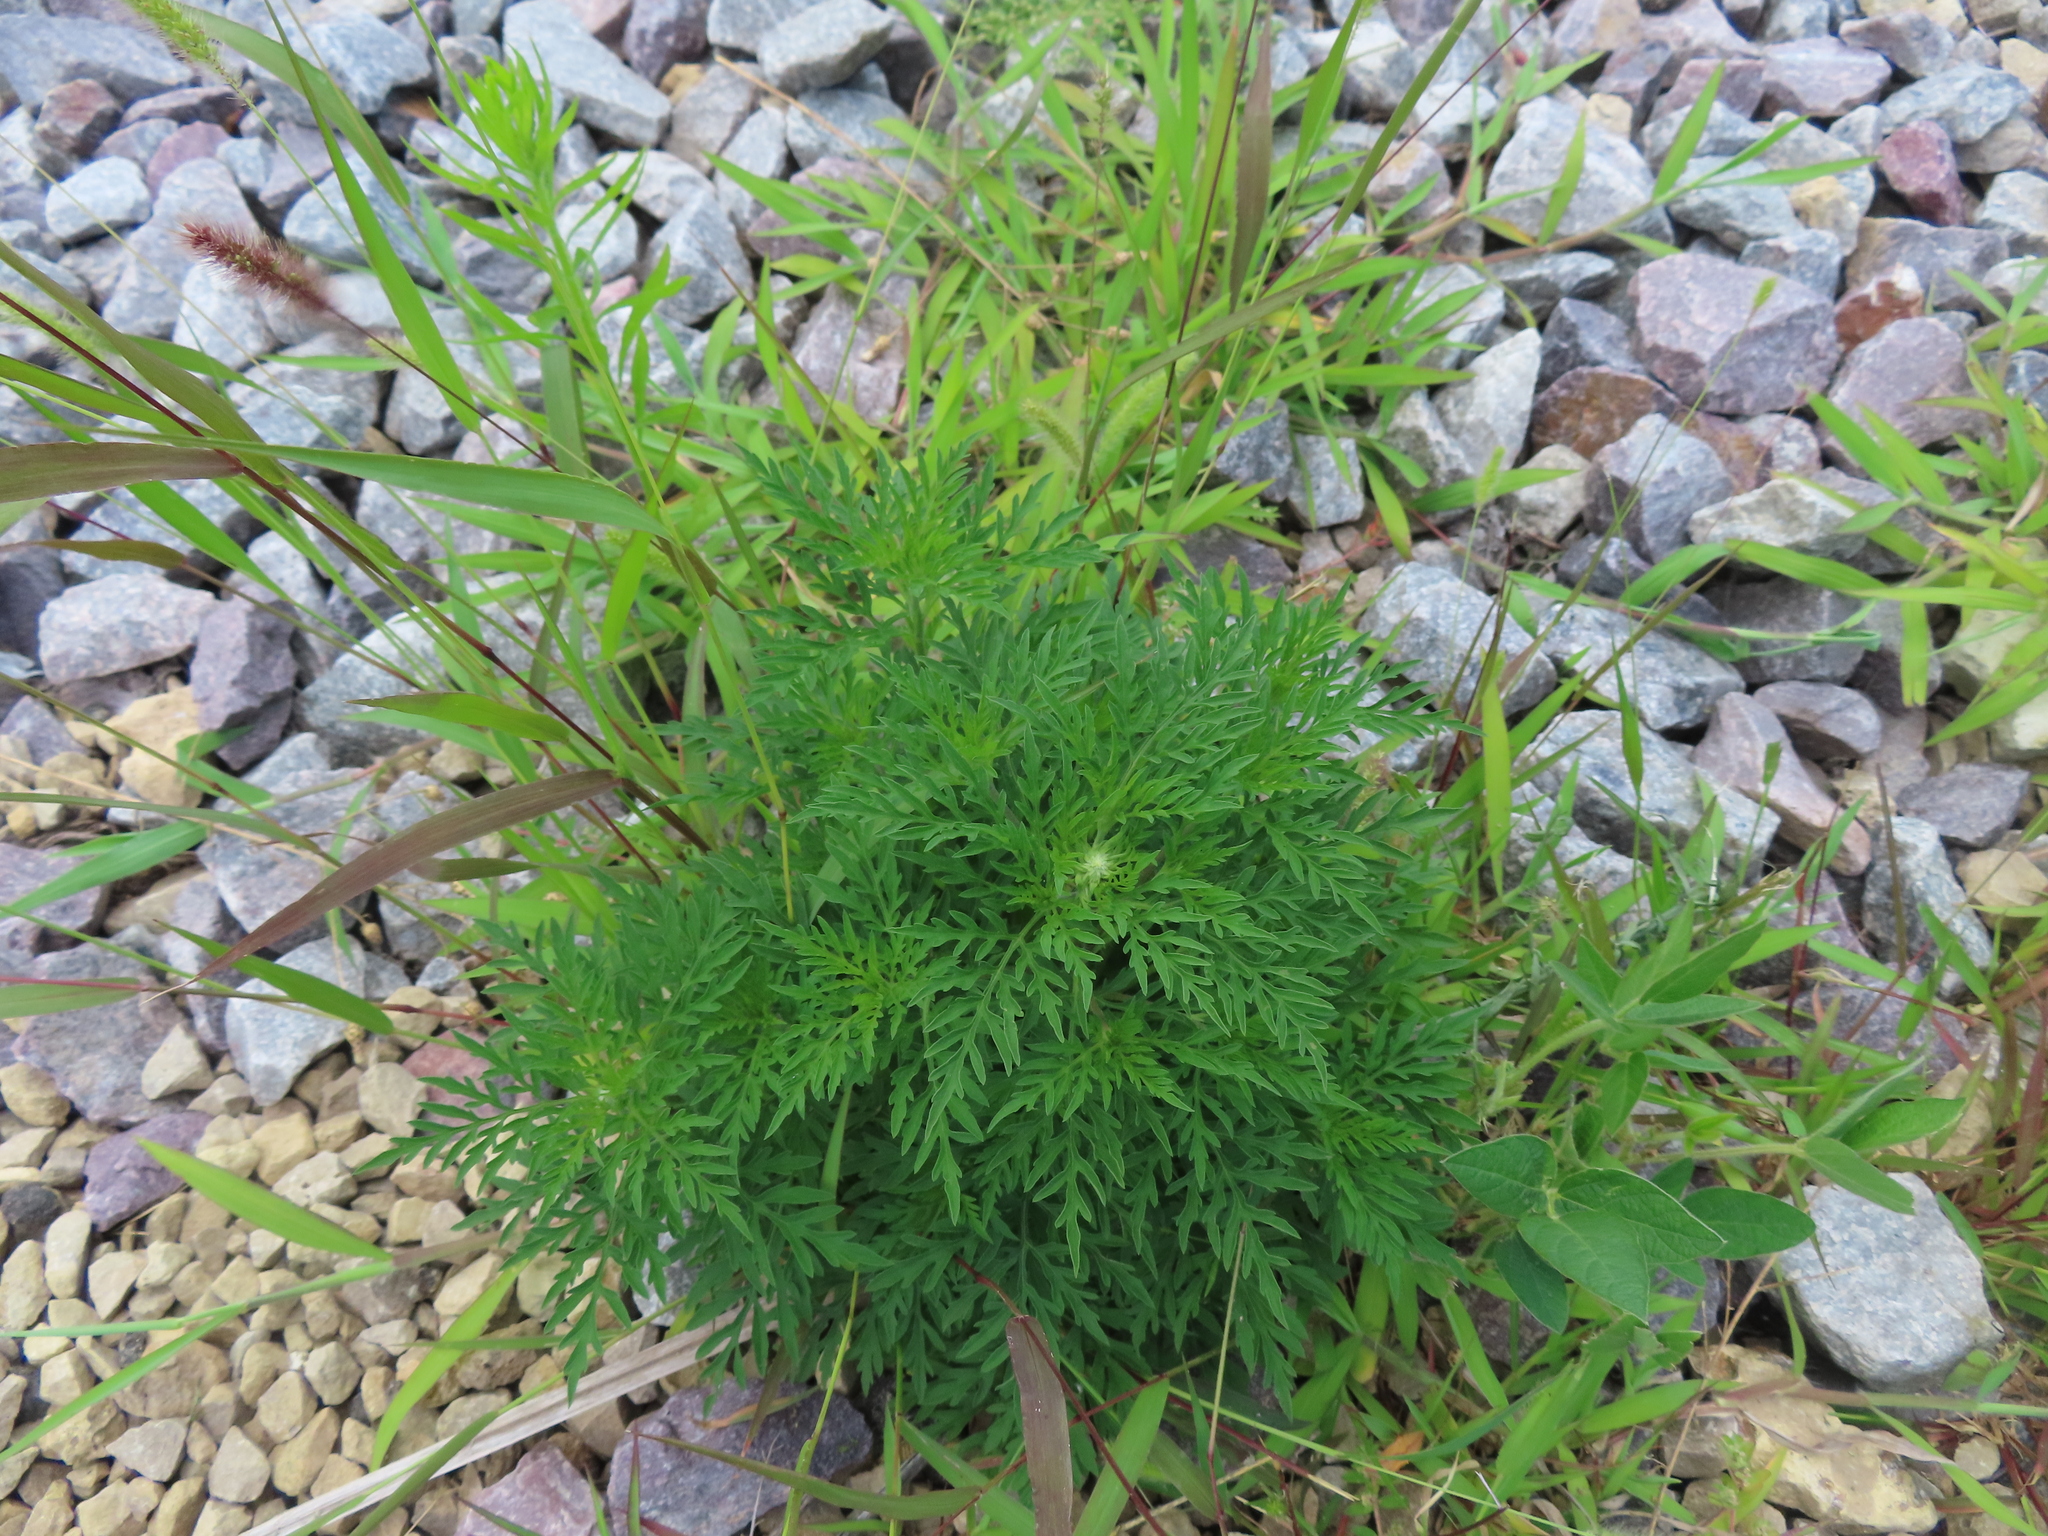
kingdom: Plantae
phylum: Tracheophyta
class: Magnoliopsida
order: Asterales
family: Asteraceae
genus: Ambrosia
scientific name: Ambrosia artemisiifolia
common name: Annual ragweed
